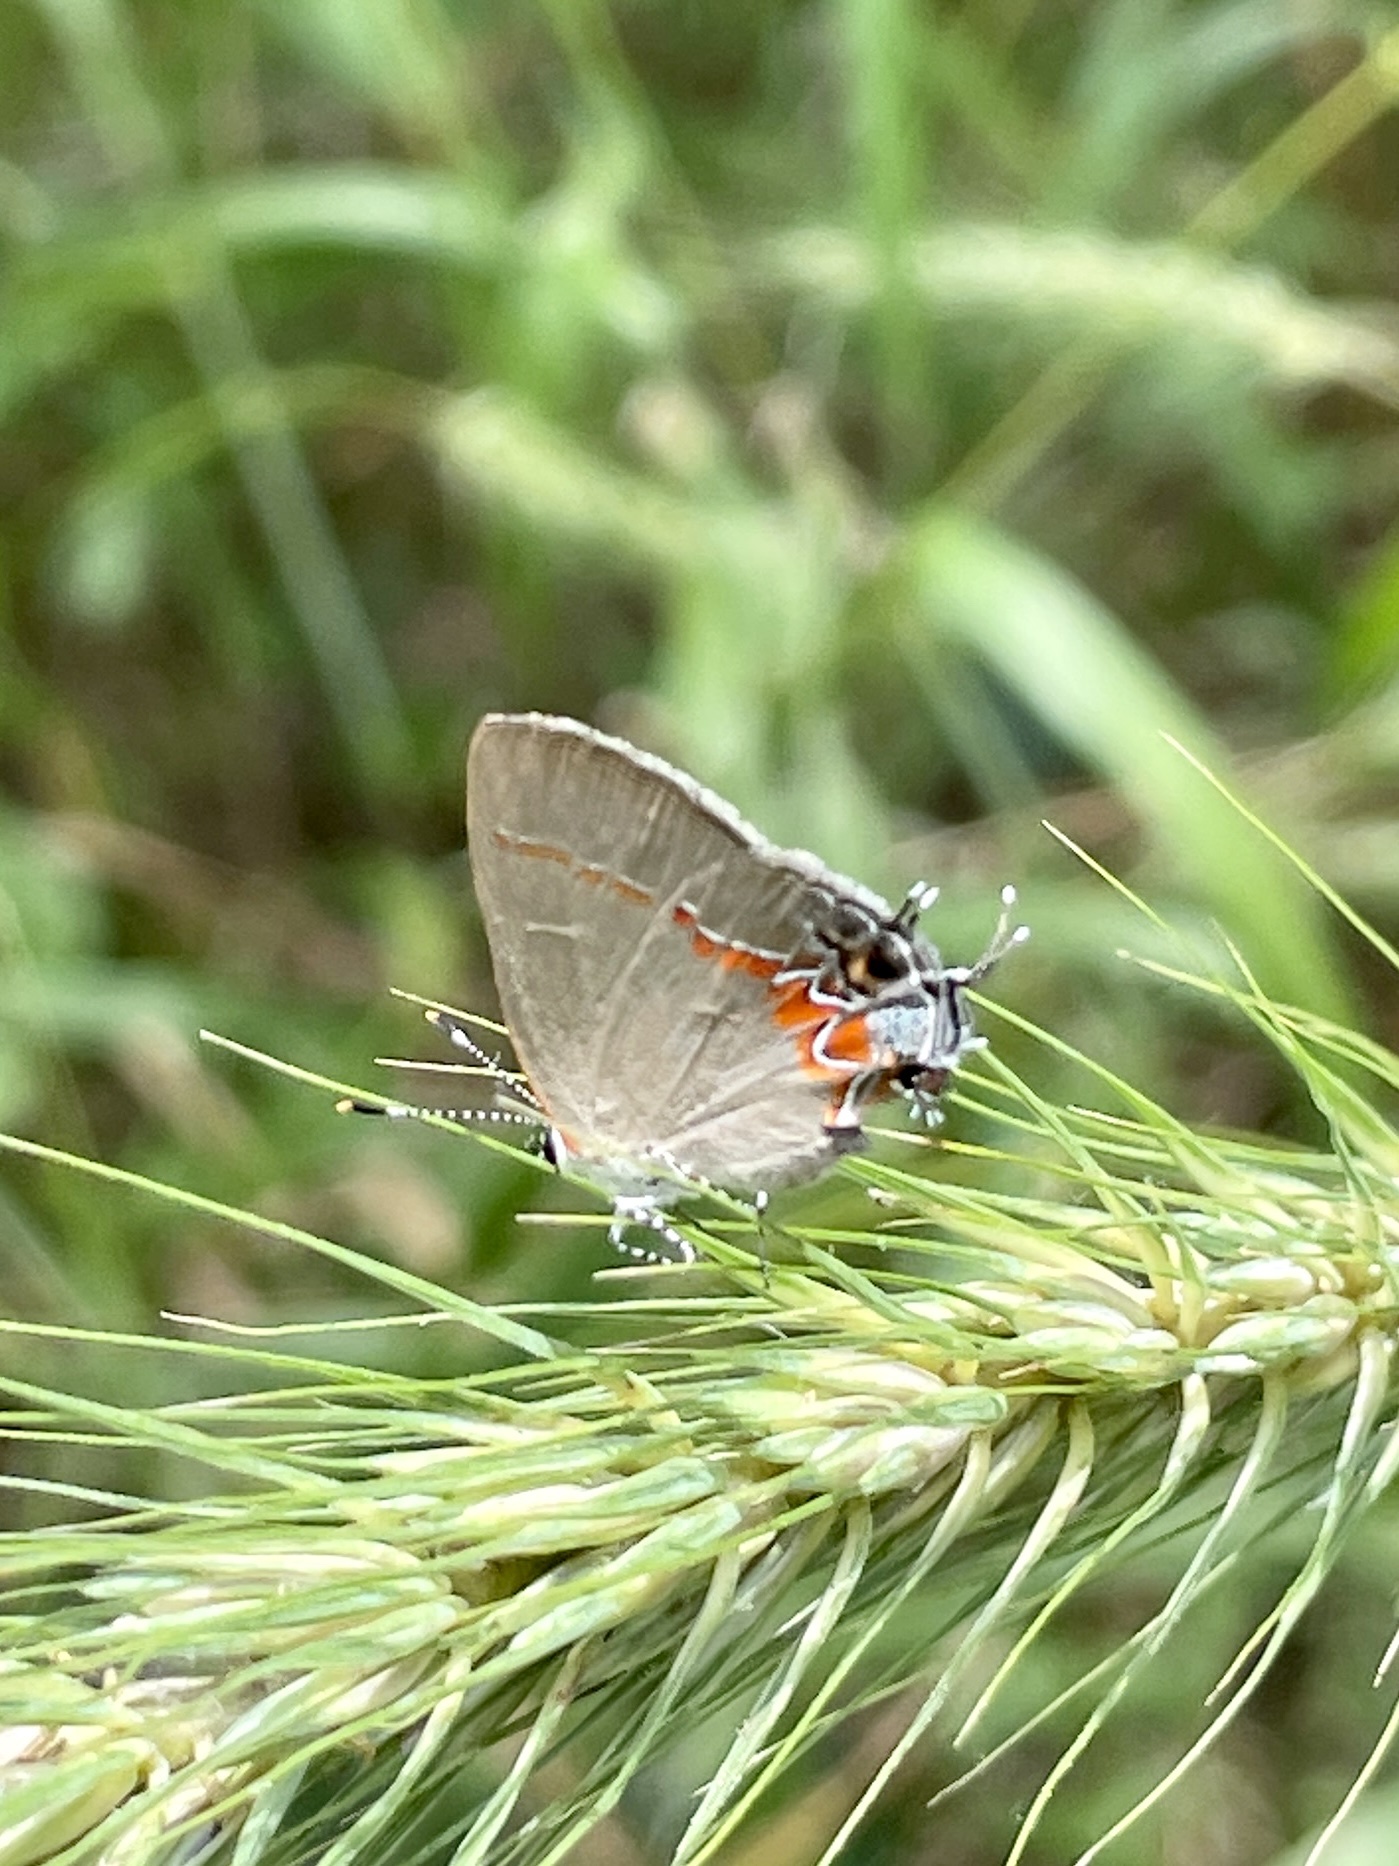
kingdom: Animalia
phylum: Arthropoda
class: Insecta
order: Lepidoptera
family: Lycaenidae
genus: Calycopis
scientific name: Calycopis isobeon
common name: Dusky-blue groundstreak
